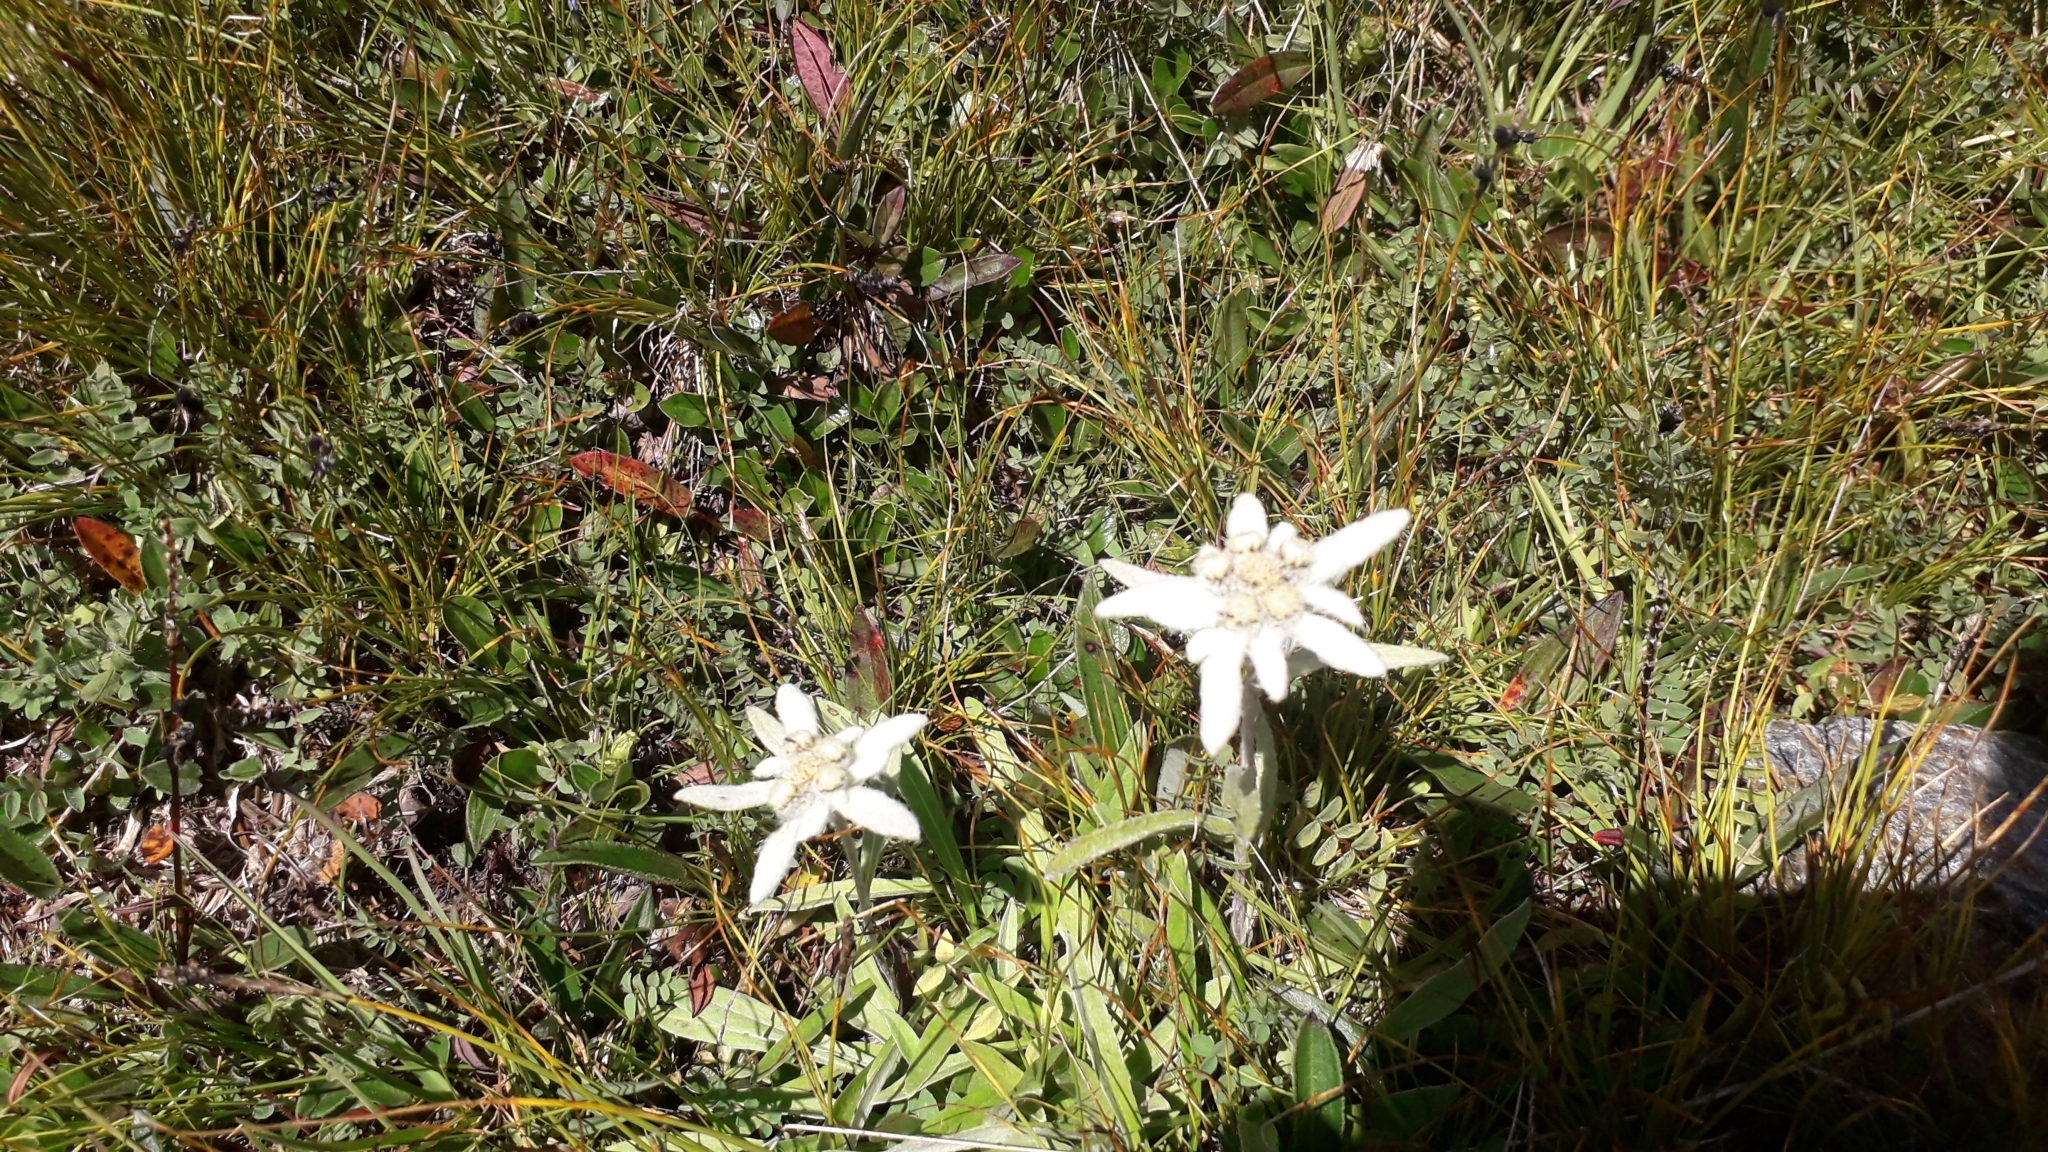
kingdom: Plantae
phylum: Tracheophyta
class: Magnoliopsida
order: Asterales
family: Asteraceae
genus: Leontopodium
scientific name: Leontopodium nivale
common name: Edelweiss
